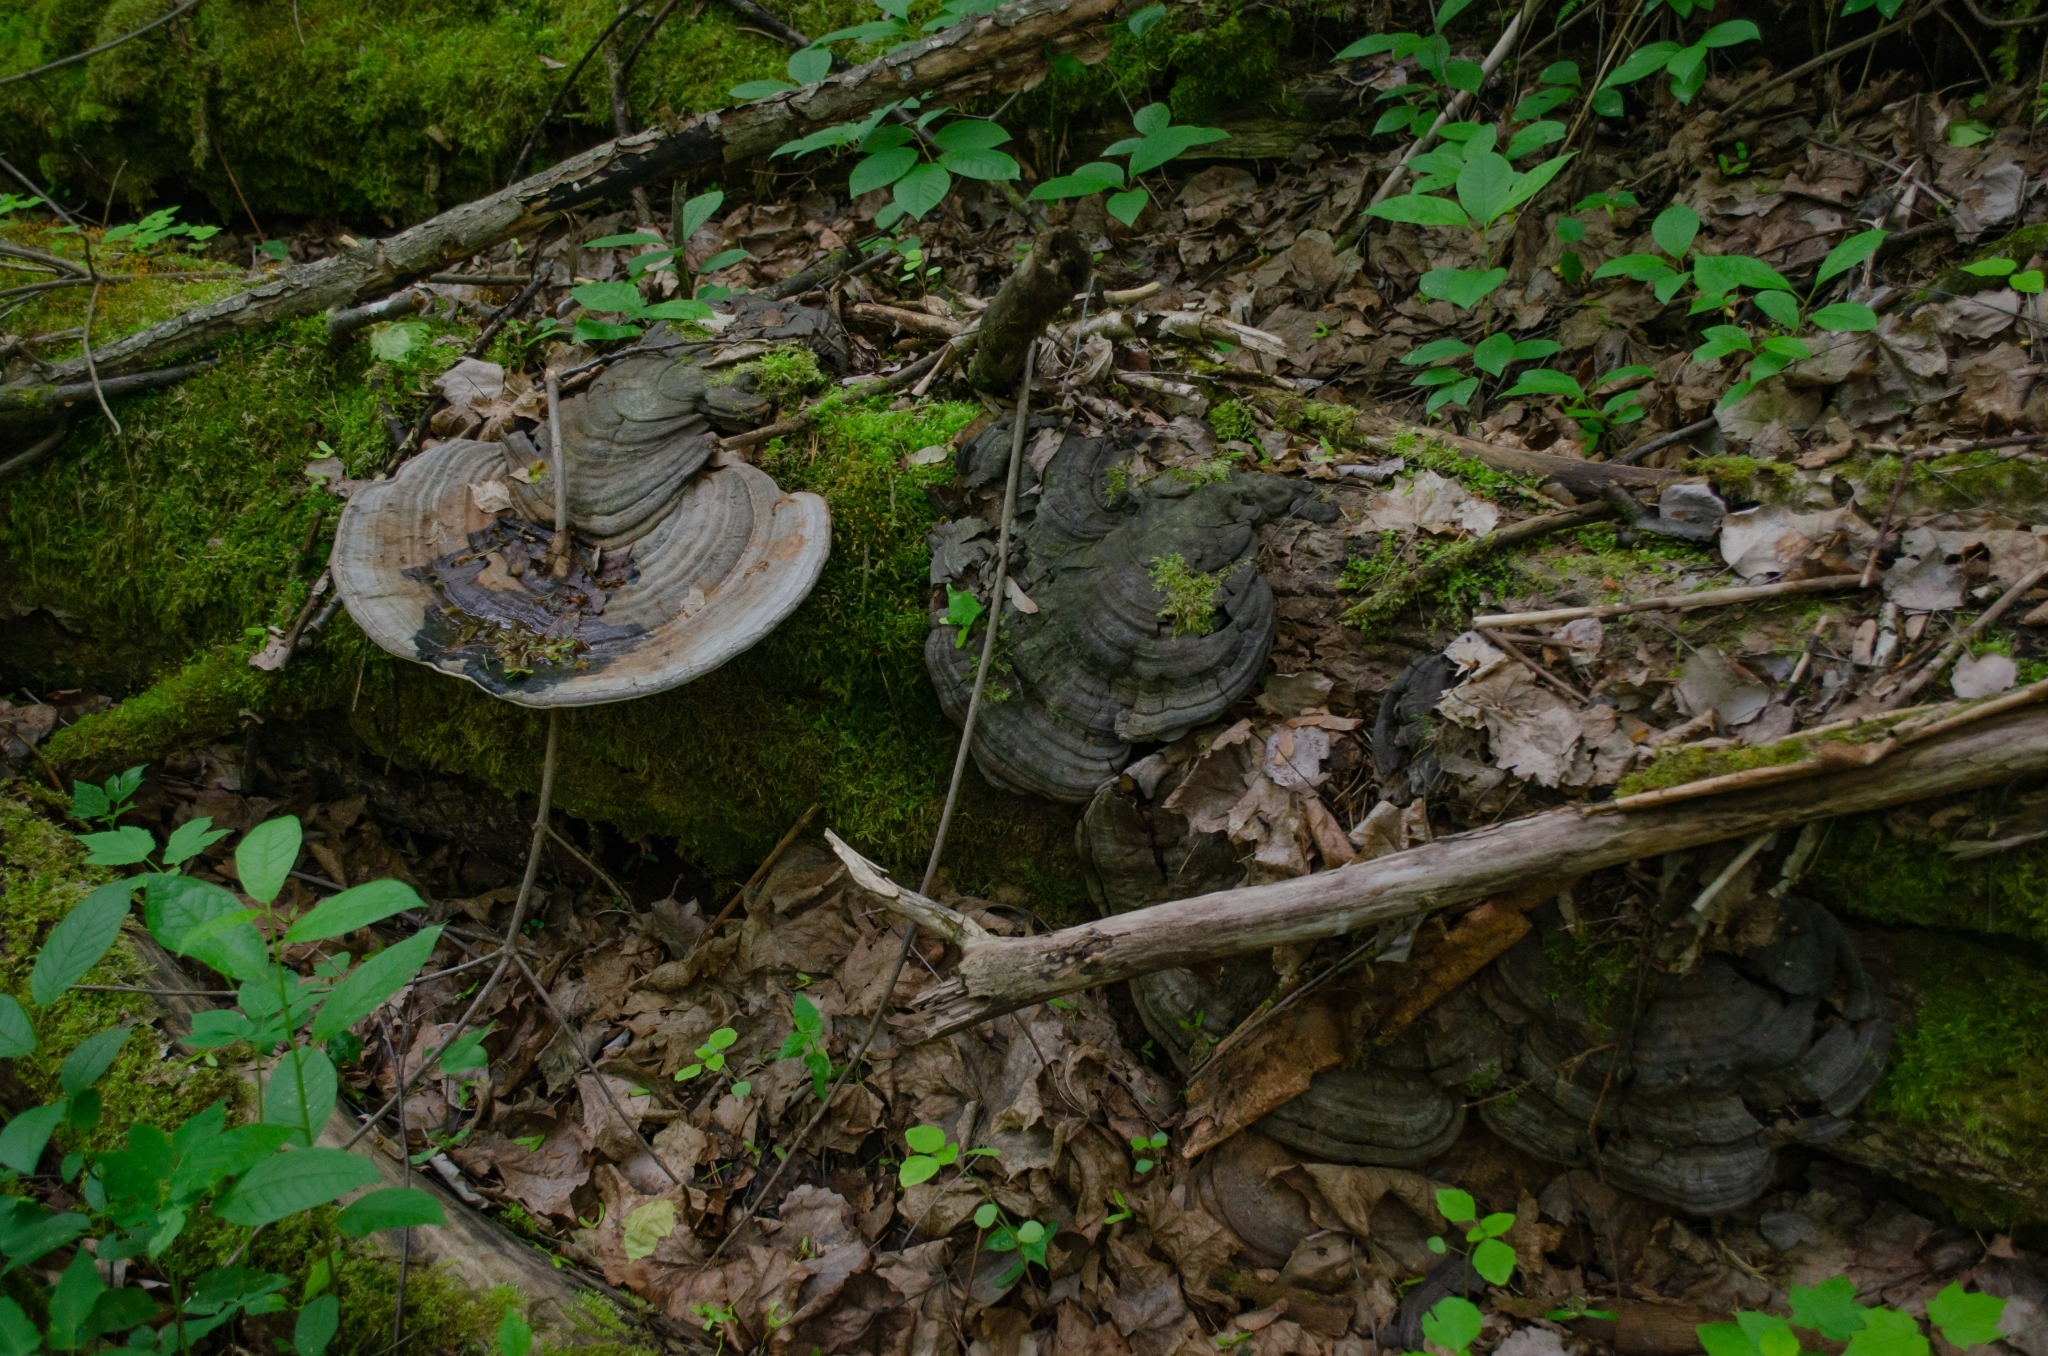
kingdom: Fungi
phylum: Basidiomycota
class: Agaricomycetes
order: Polyporales
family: Polyporaceae
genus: Ganoderma
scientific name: Ganoderma applanatum
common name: Artist's bracket
